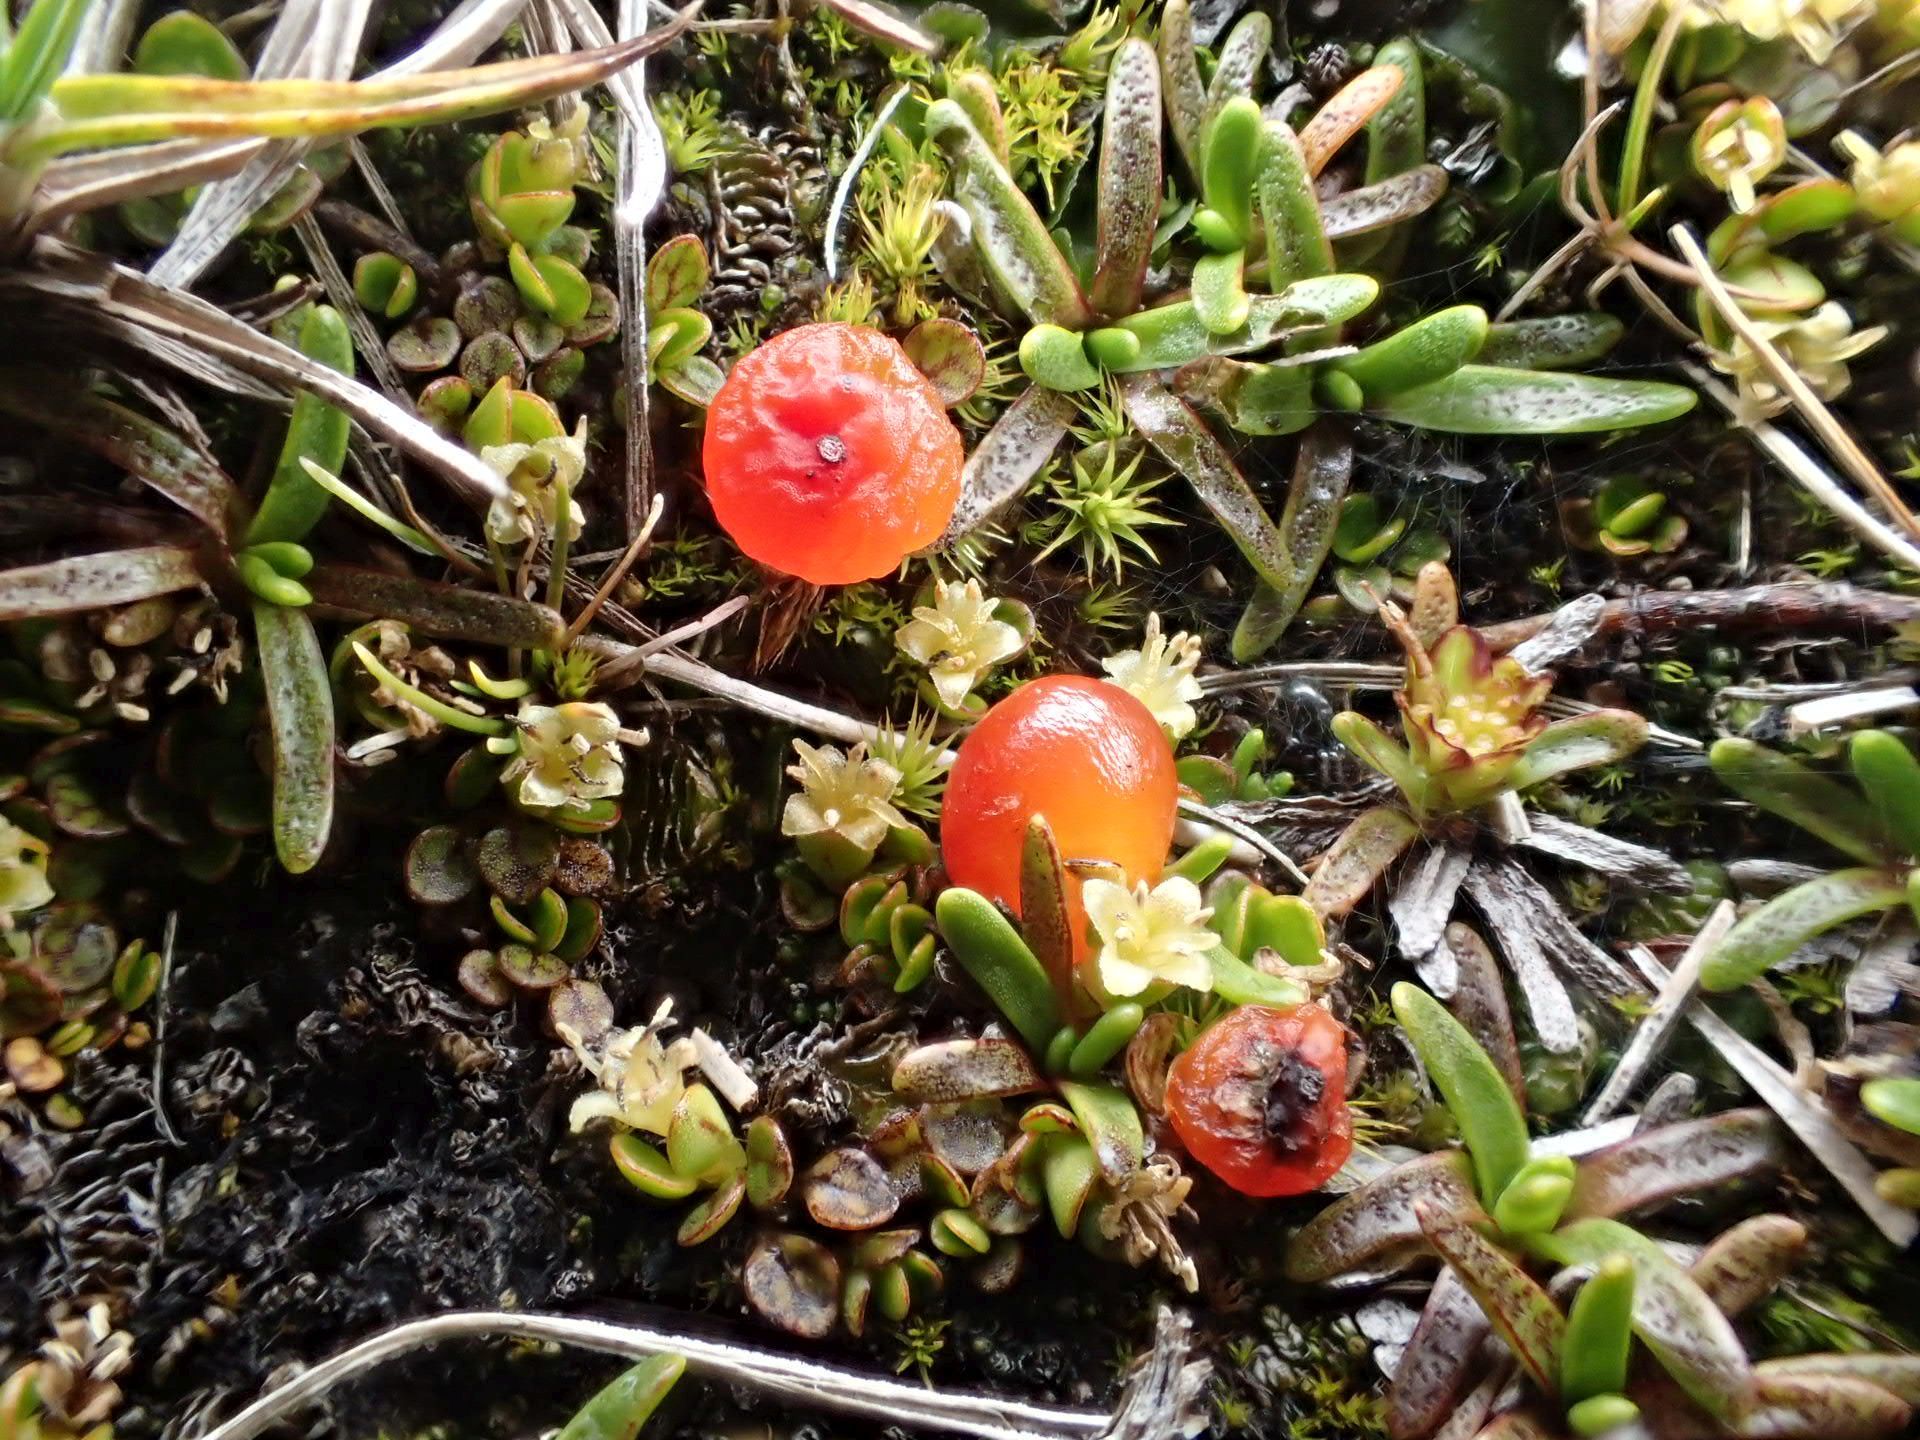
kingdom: Plantae
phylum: Tracheophyta
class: Magnoliopsida
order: Gentianales
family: Rubiaceae
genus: Nertera
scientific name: Nertera balfouriana
